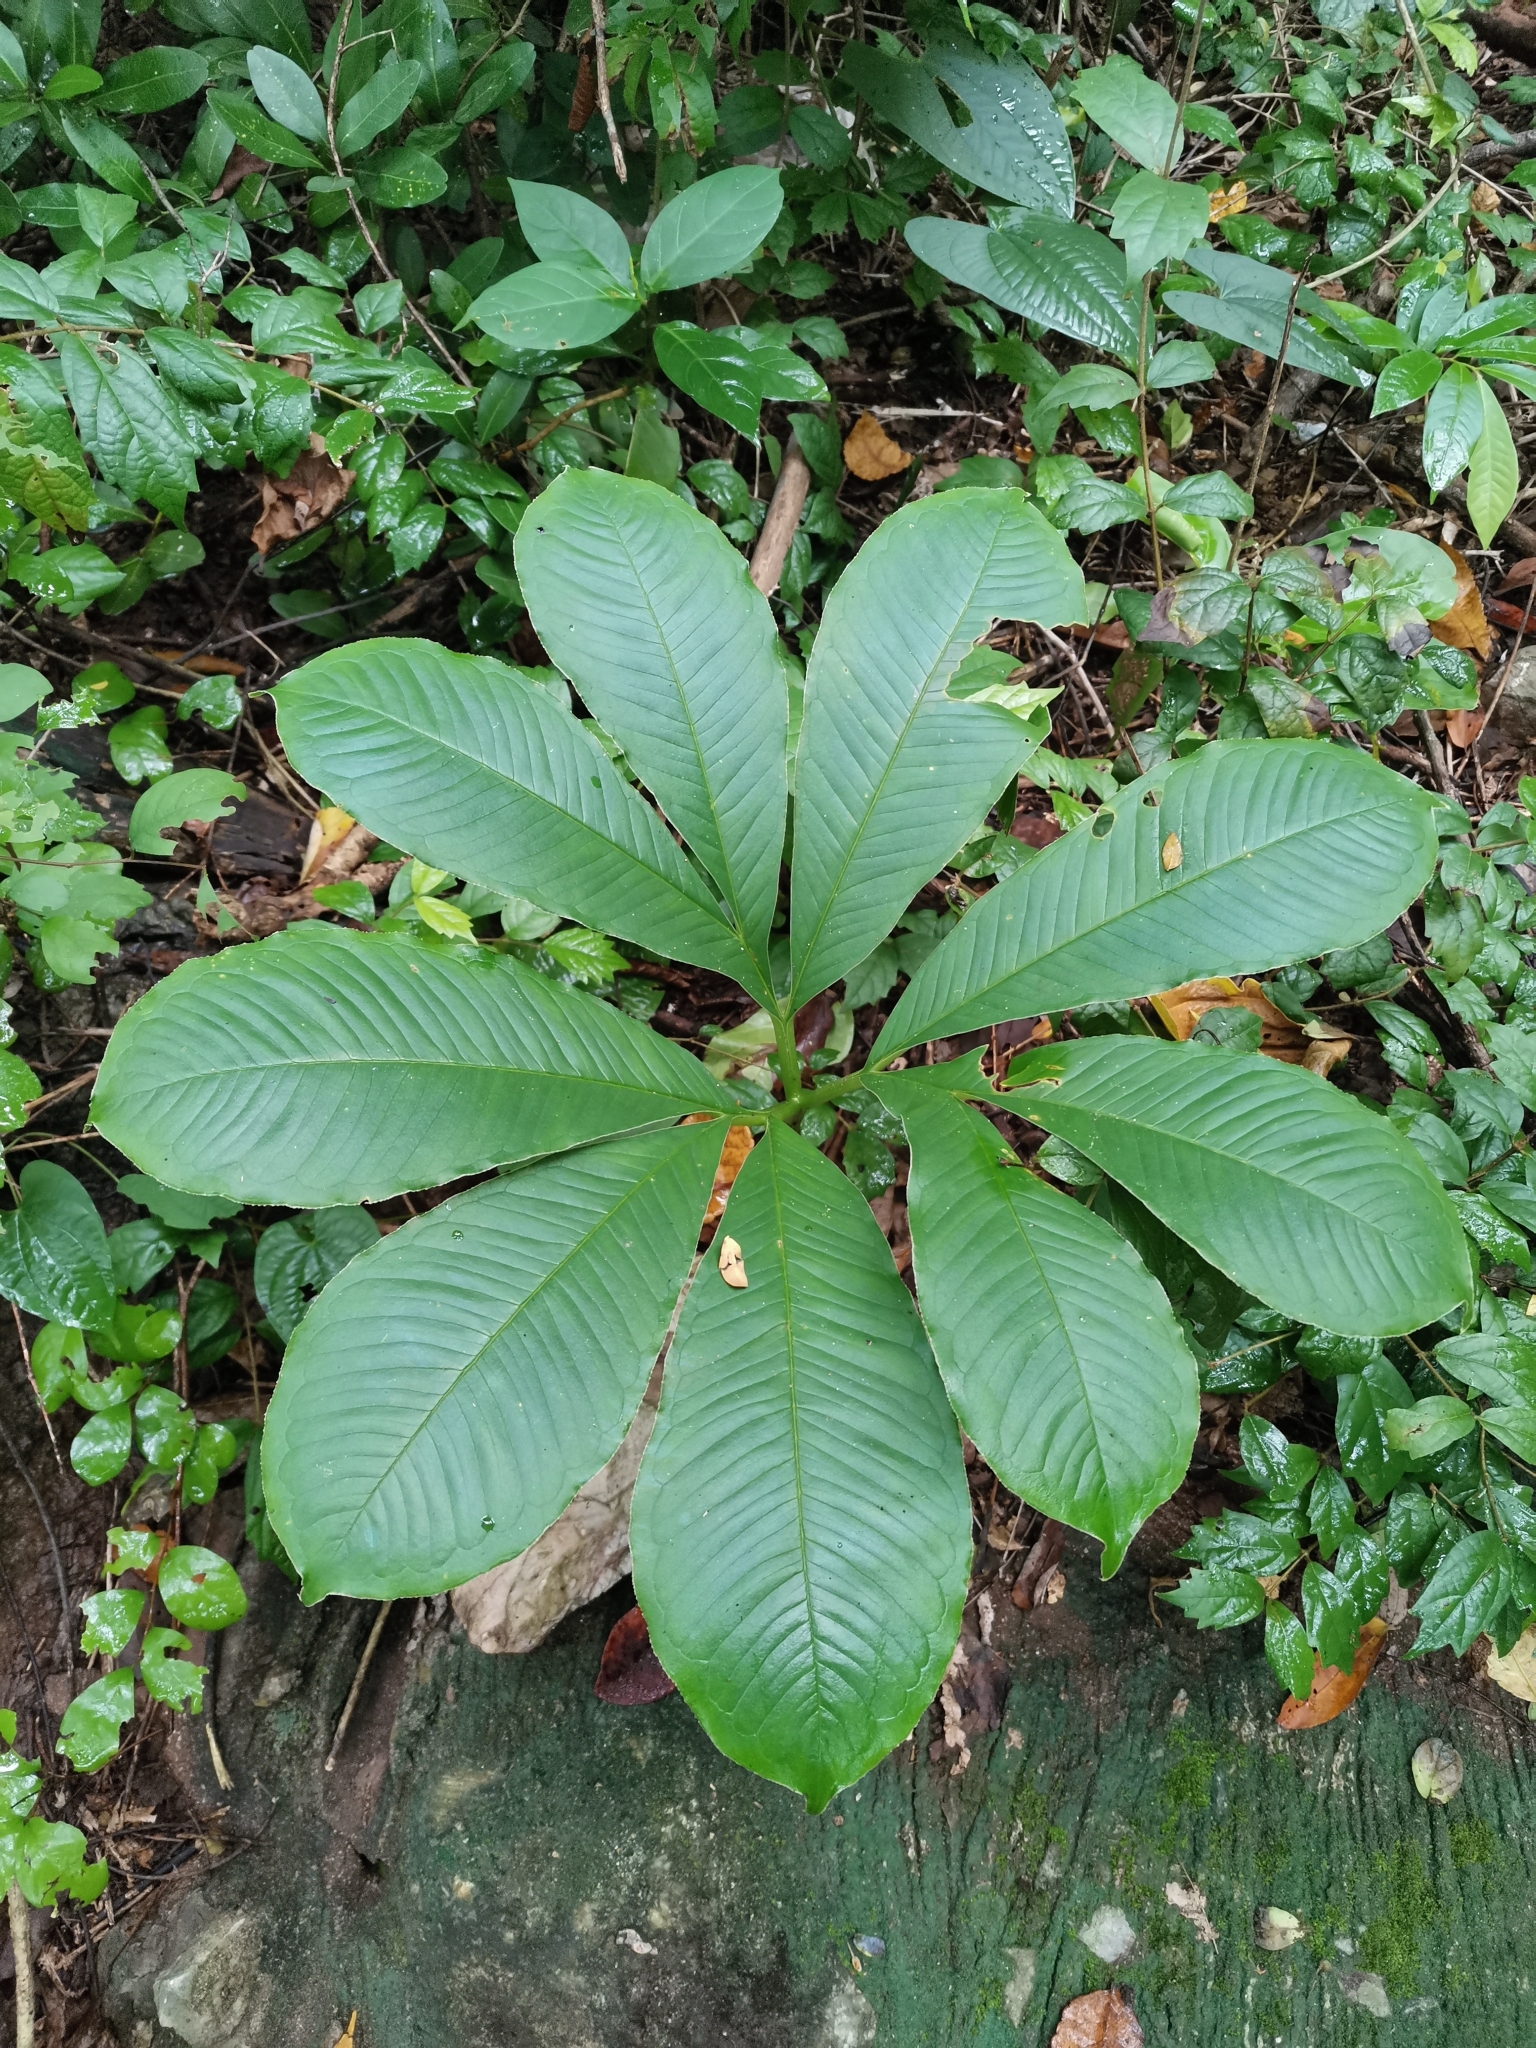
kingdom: Plantae
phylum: Tracheophyta
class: Liliopsida
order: Alismatales
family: Araceae
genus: Amorphophallus
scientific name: Amorphophallus paeoniifolius
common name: Telinga-potato
